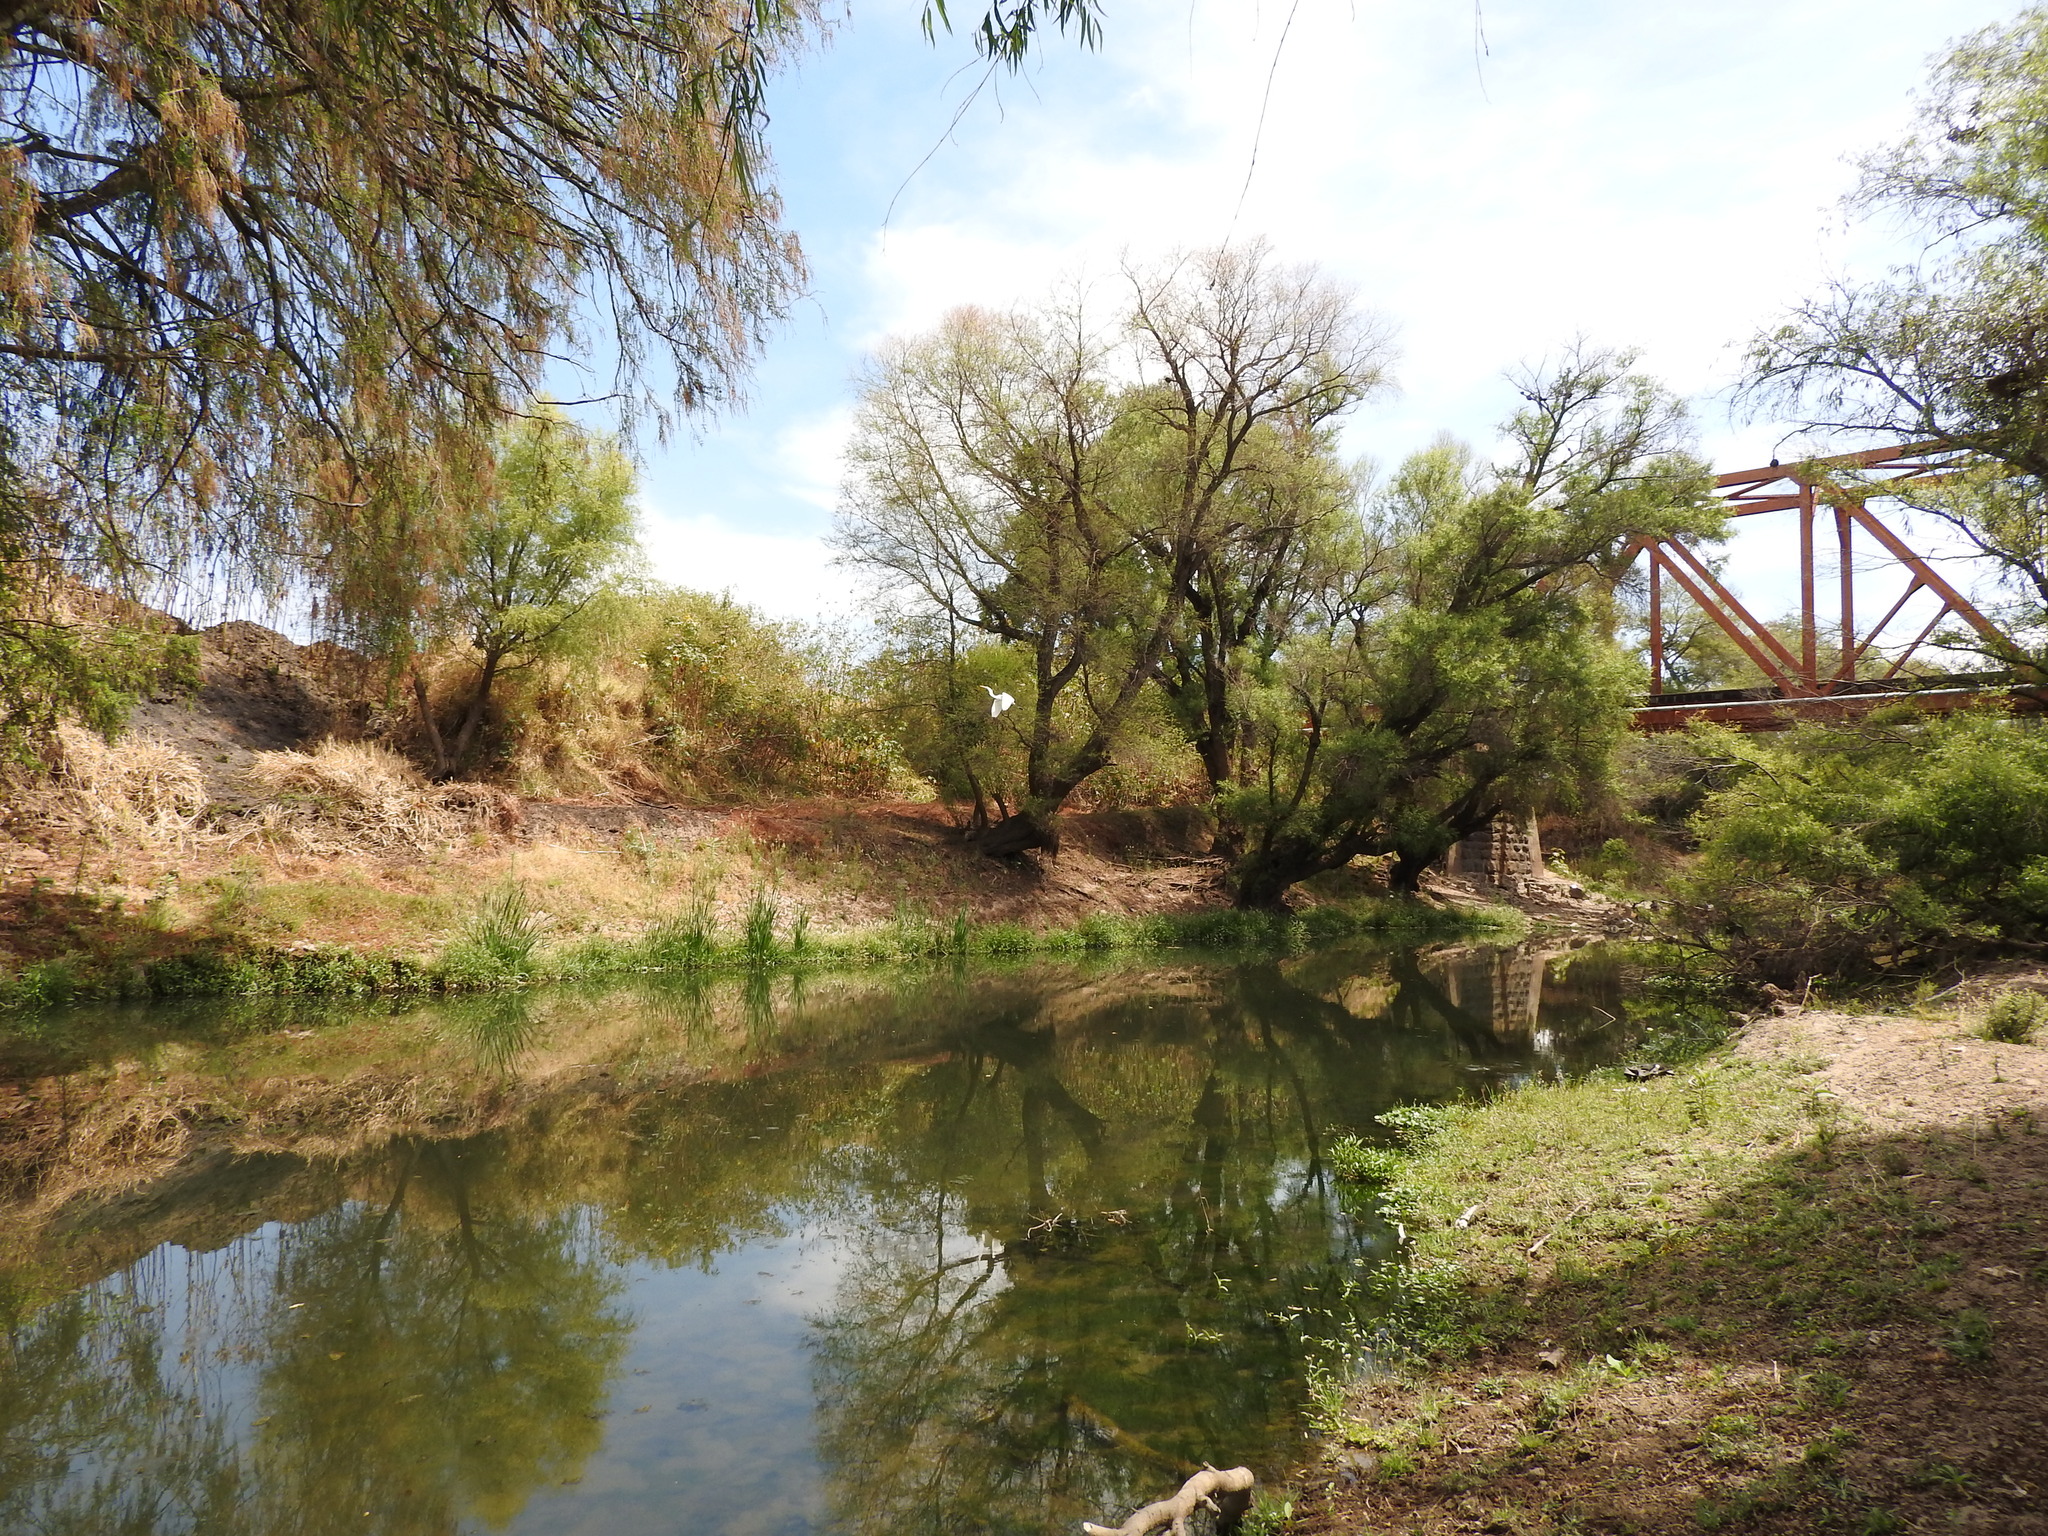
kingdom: Animalia
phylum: Chordata
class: Aves
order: Pelecaniformes
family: Ardeidae
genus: Ardea
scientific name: Ardea alba
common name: Great egret
